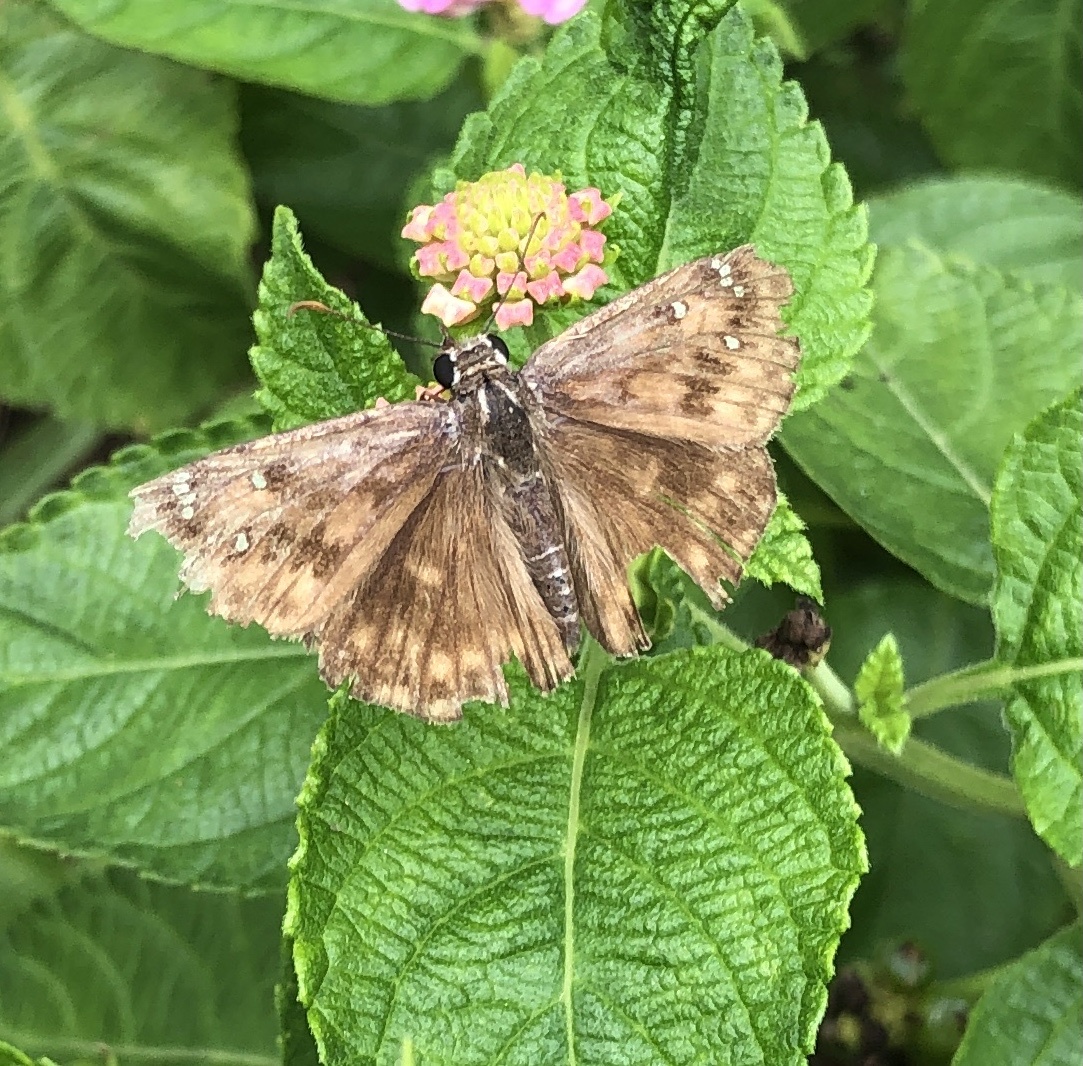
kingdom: Animalia
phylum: Arthropoda
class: Insecta
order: Lepidoptera
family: Hesperiidae
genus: Erynnis
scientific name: Erynnis horatius
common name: Horace's duskywing
